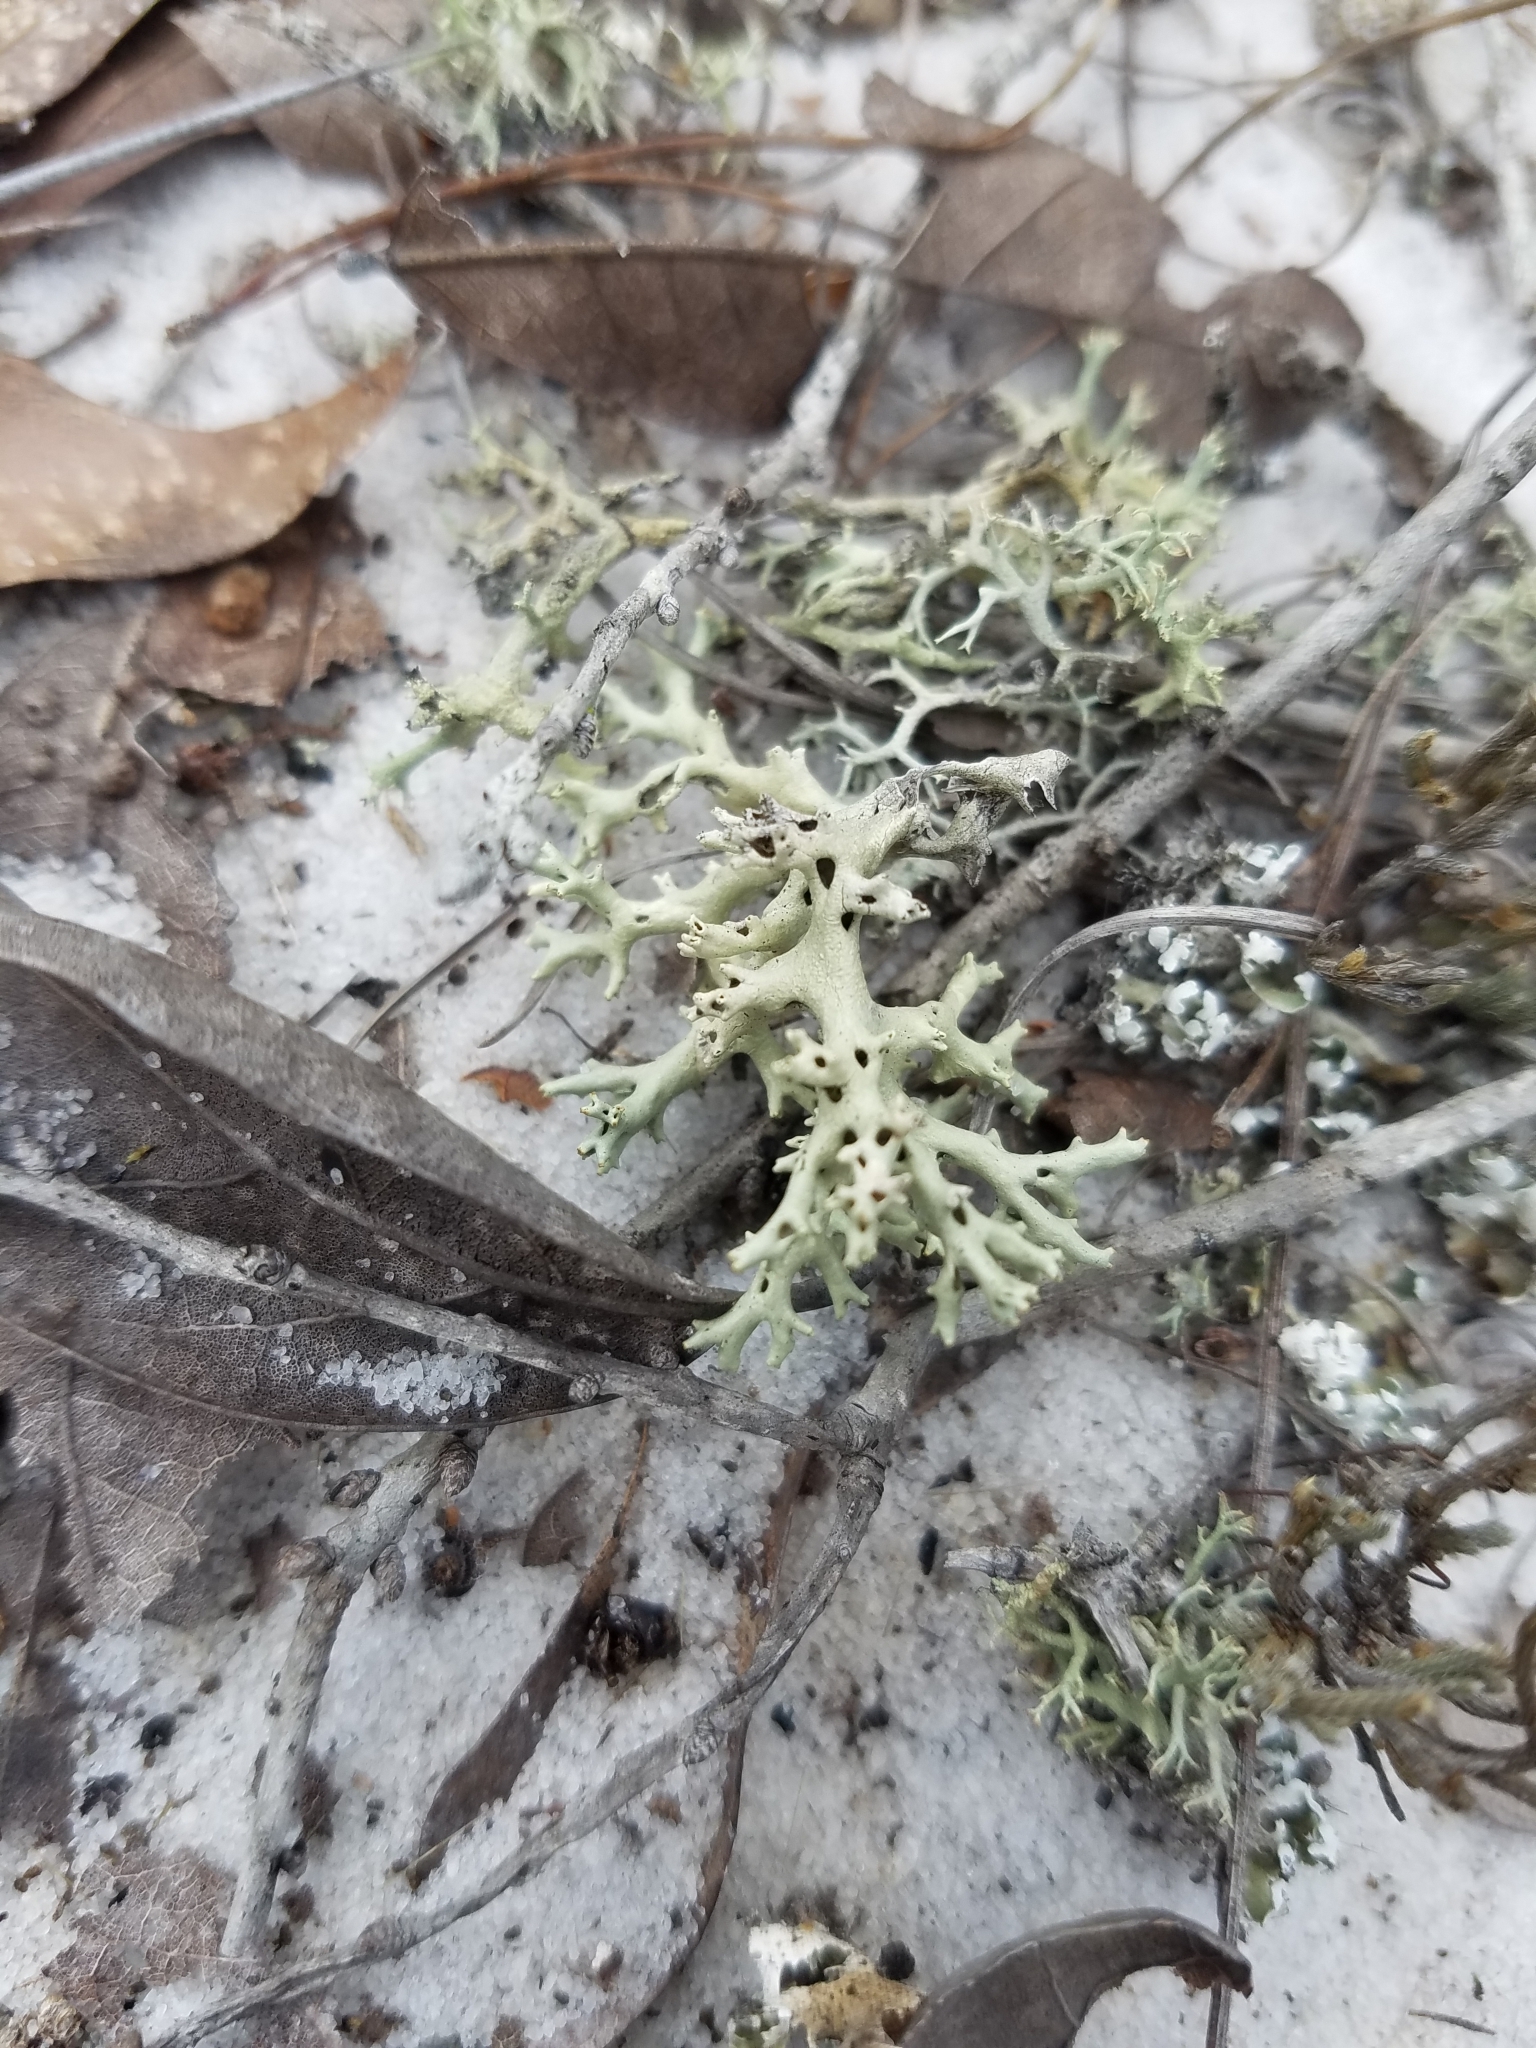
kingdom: Fungi
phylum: Ascomycota
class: Lecanoromycetes
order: Lecanorales
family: Cladoniaceae
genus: Cladonia
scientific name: Cladonia perforata
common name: Florida perforate reindeer lichen
